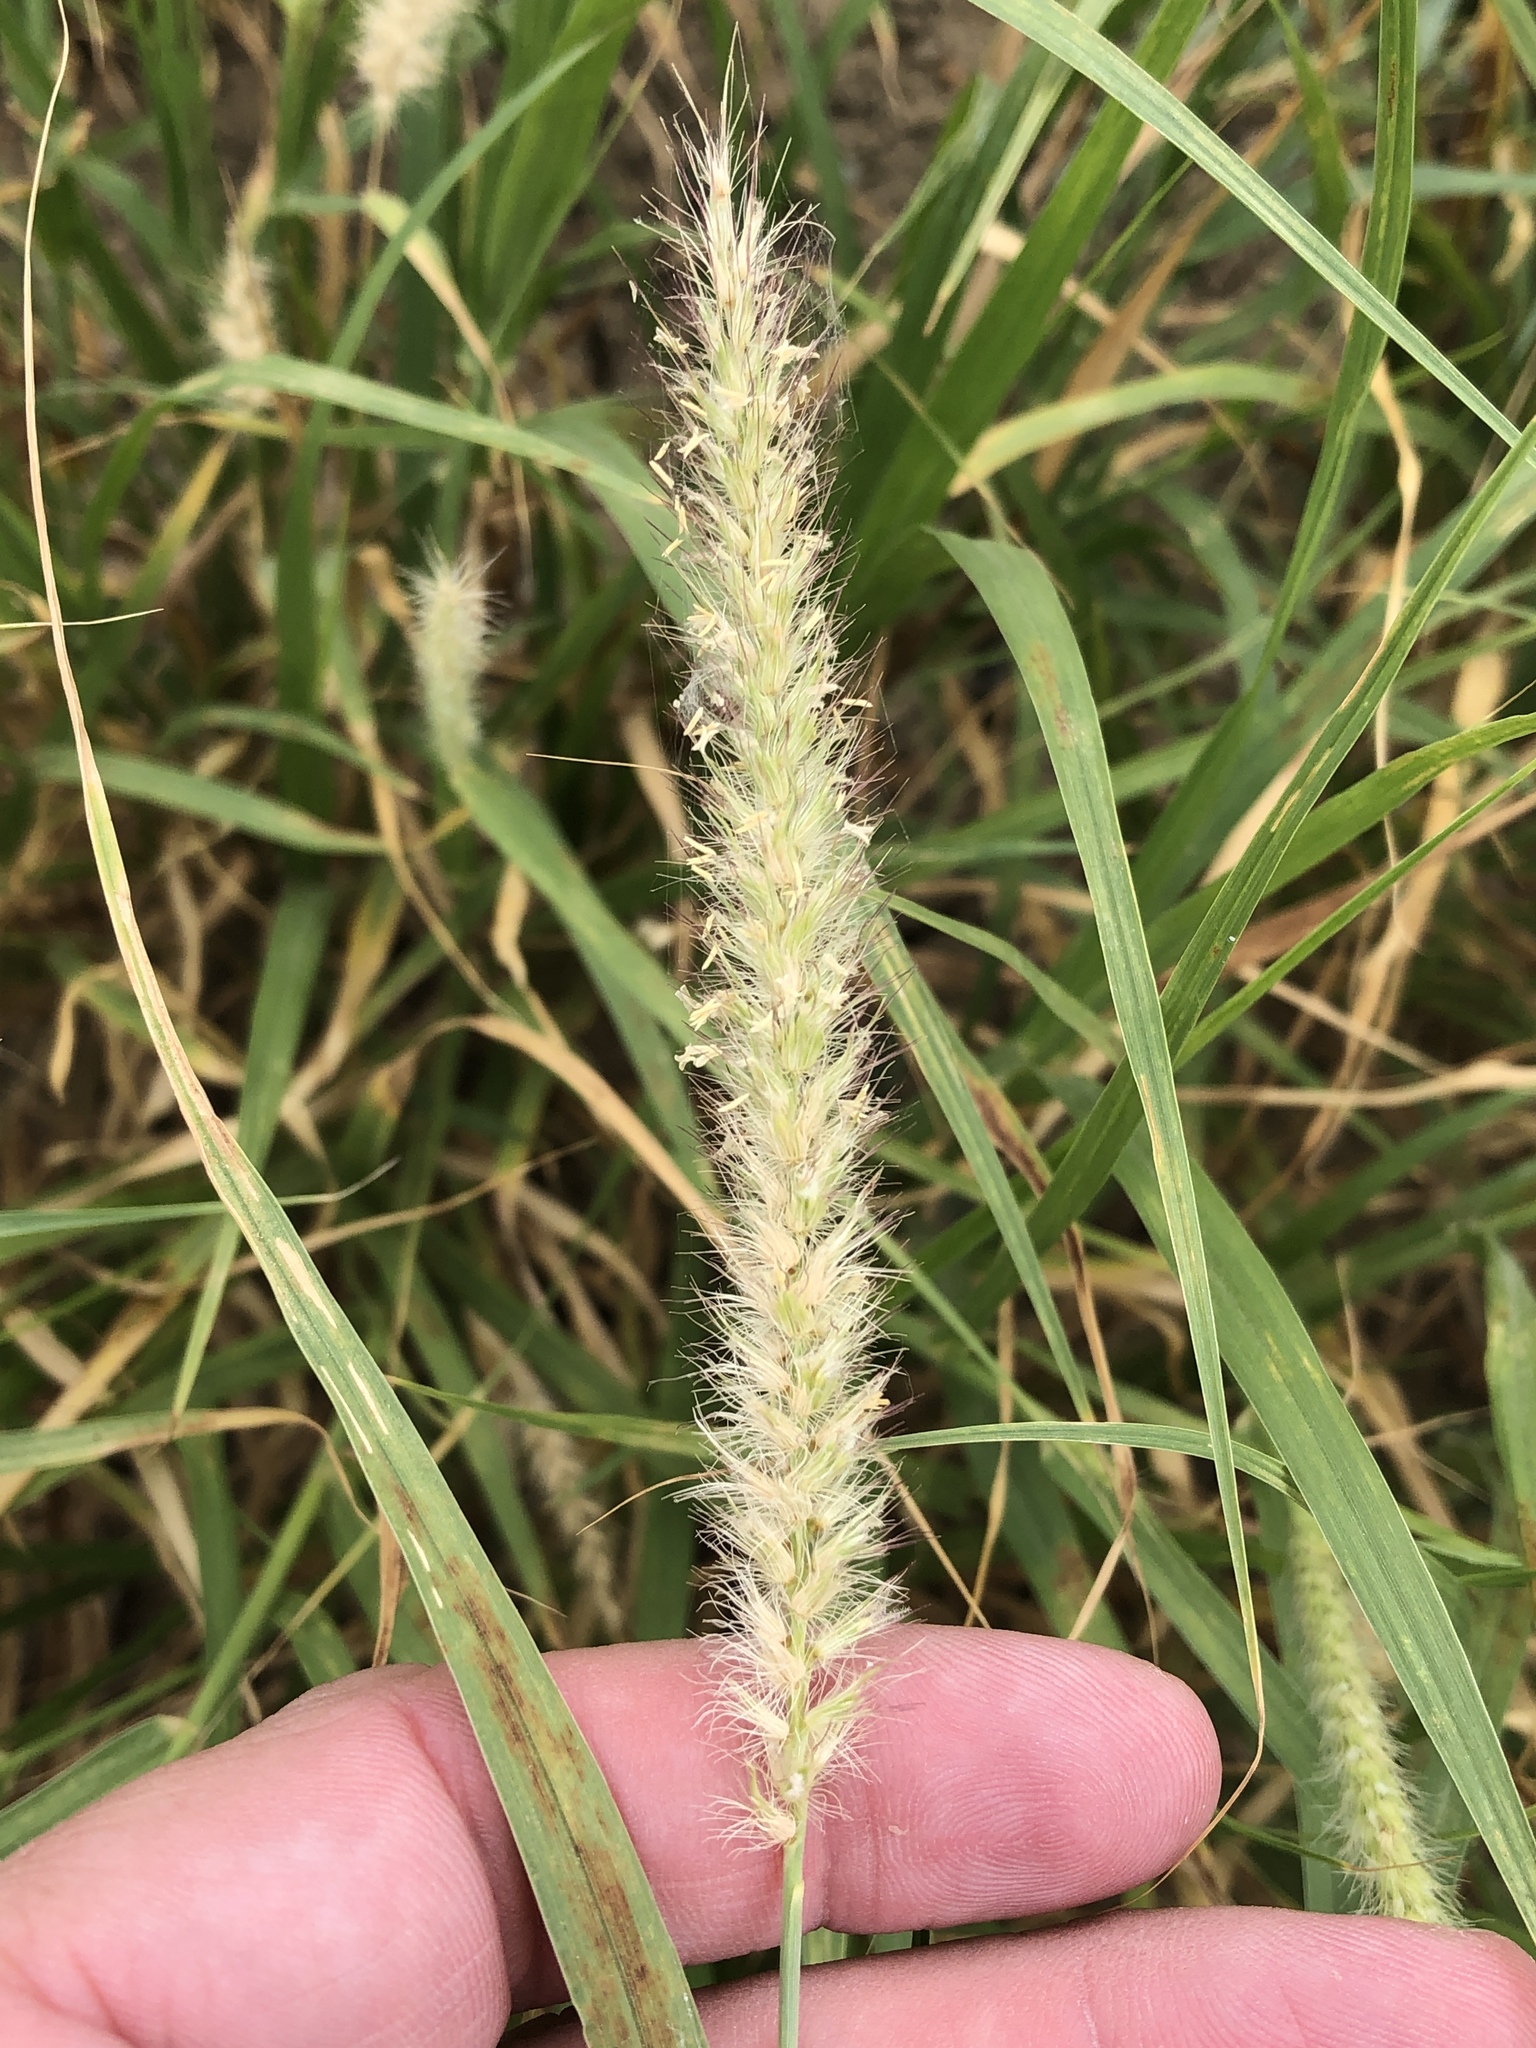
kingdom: Plantae
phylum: Tracheophyta
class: Liliopsida
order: Poales
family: Poaceae
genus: Cenchrus
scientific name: Cenchrus ciliaris
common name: Buffelgrass
